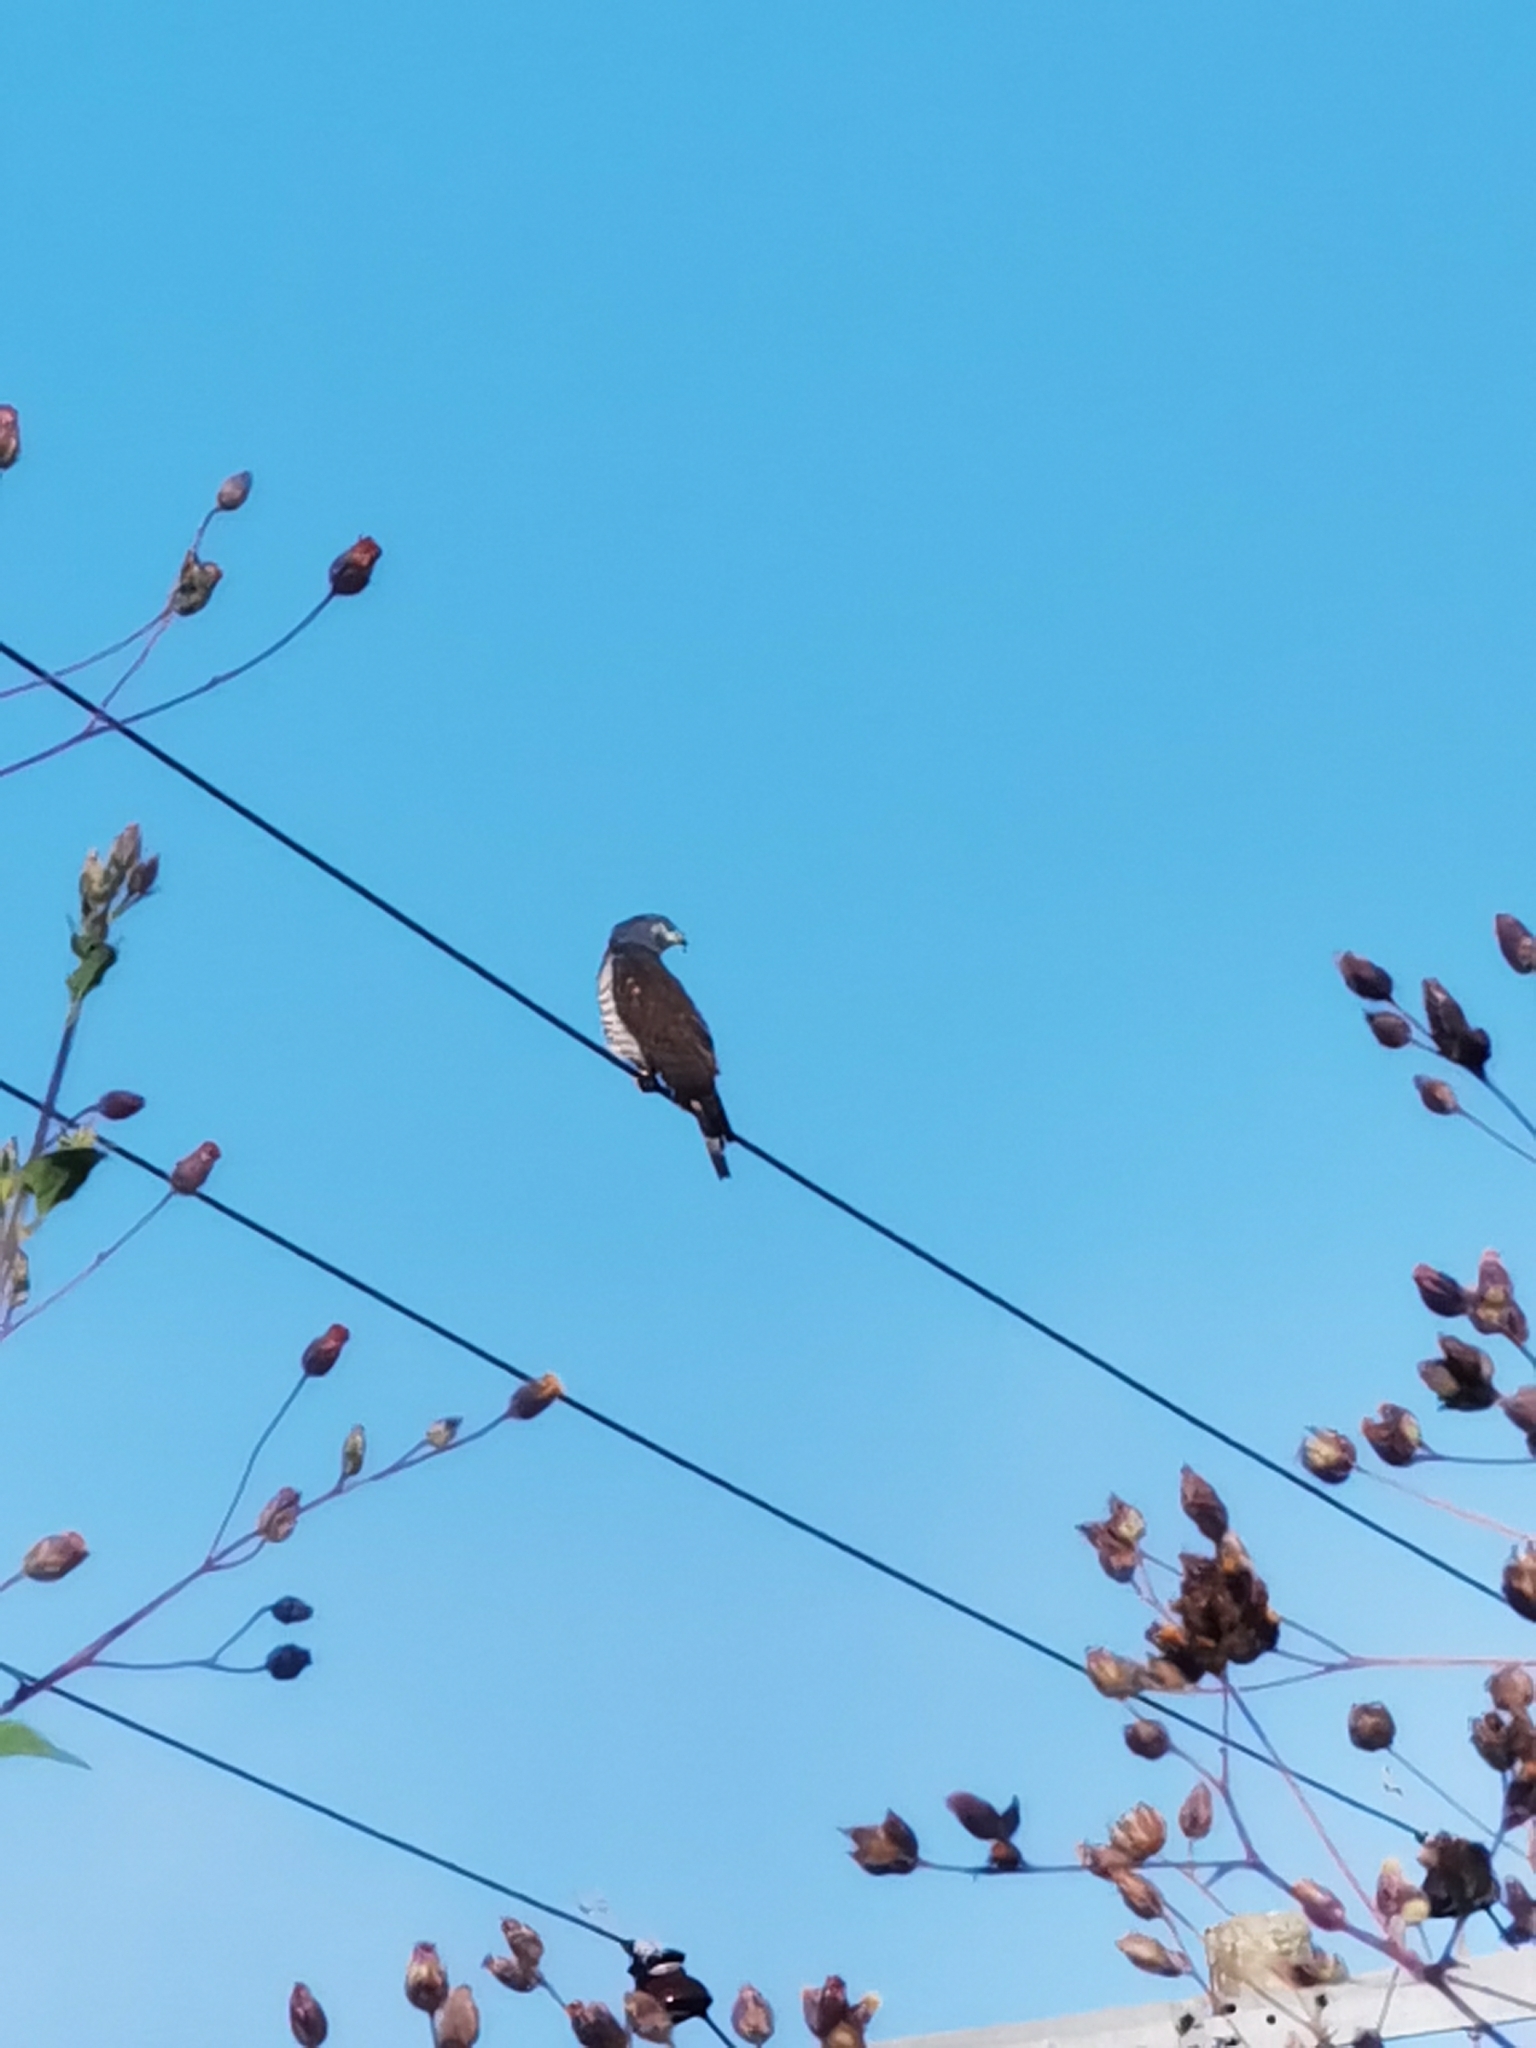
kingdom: Animalia
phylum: Chordata
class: Aves
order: Accipitriformes
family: Accipitridae
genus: Chondrohierax
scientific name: Chondrohierax uncinatus
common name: Hook-billed kite
